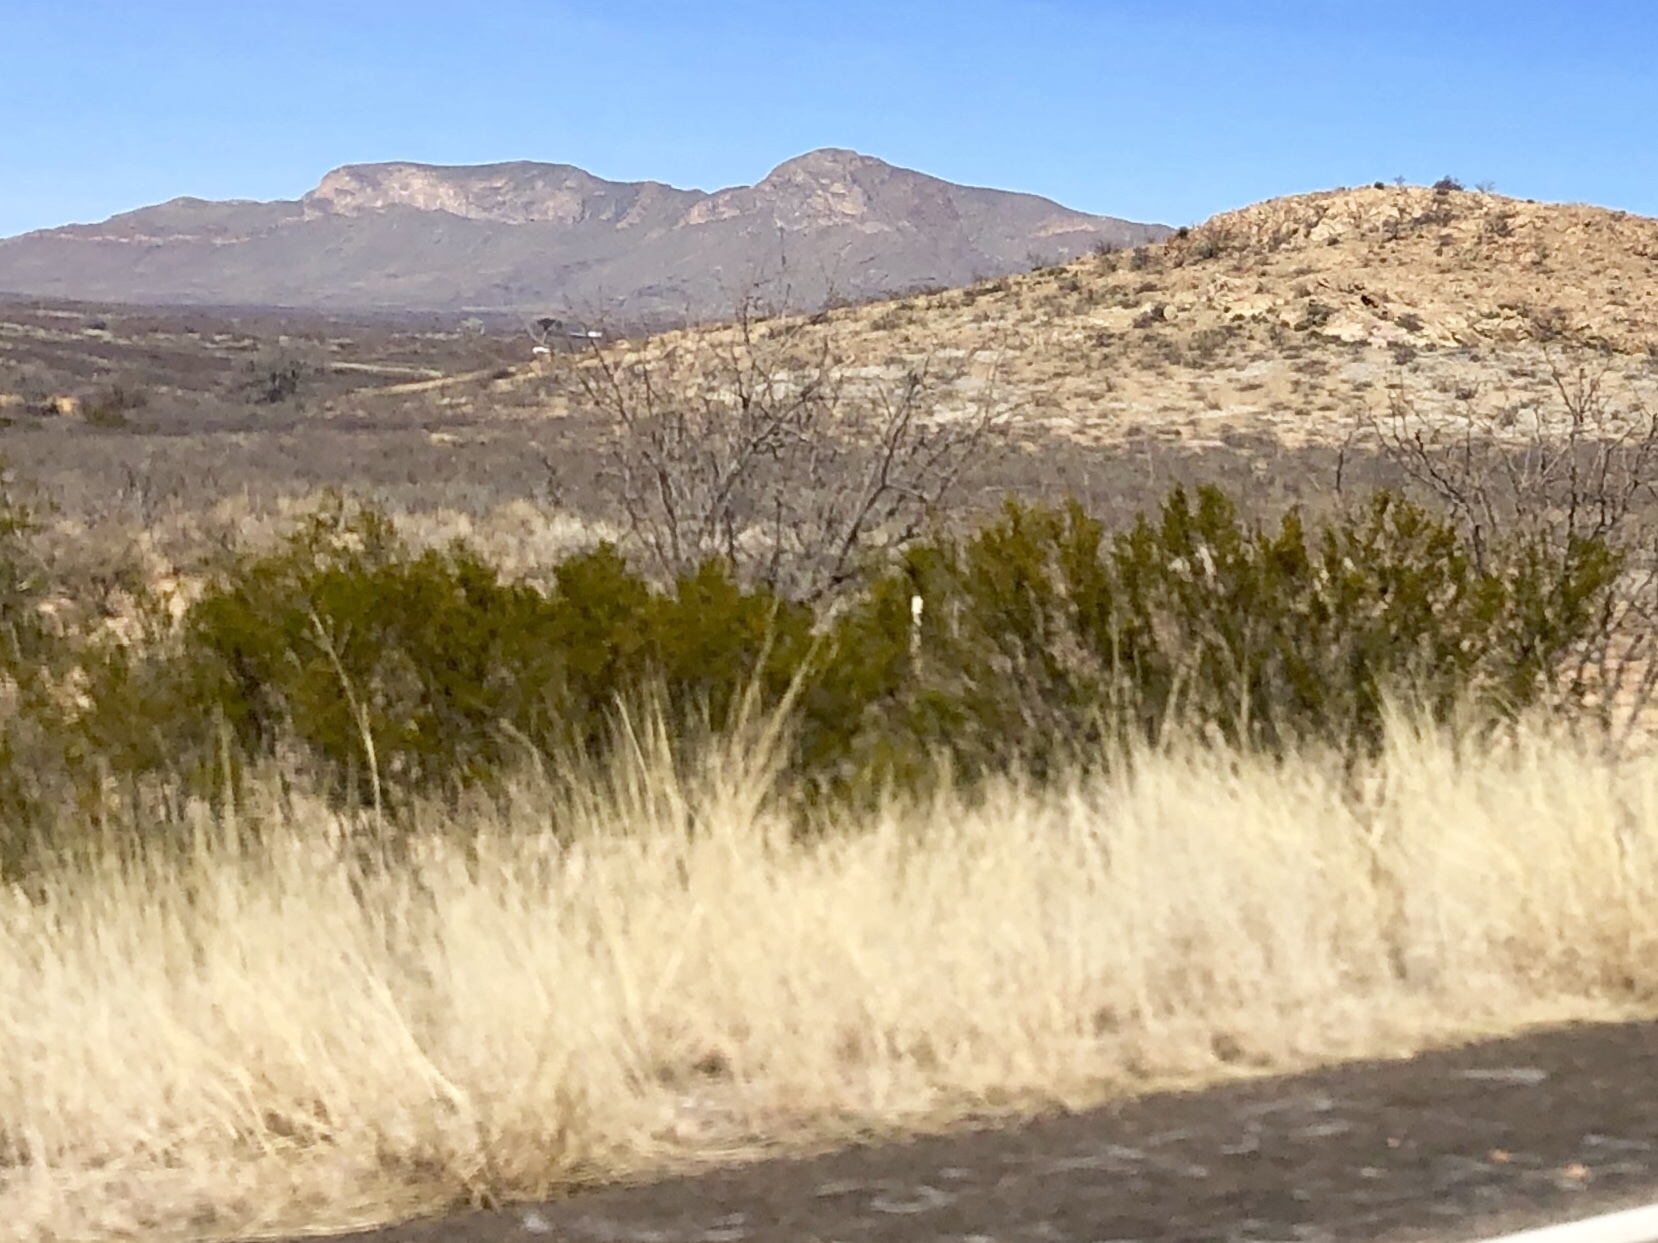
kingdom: Plantae
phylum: Tracheophyta
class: Magnoliopsida
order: Zygophyllales
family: Zygophyllaceae
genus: Larrea
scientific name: Larrea tridentata
